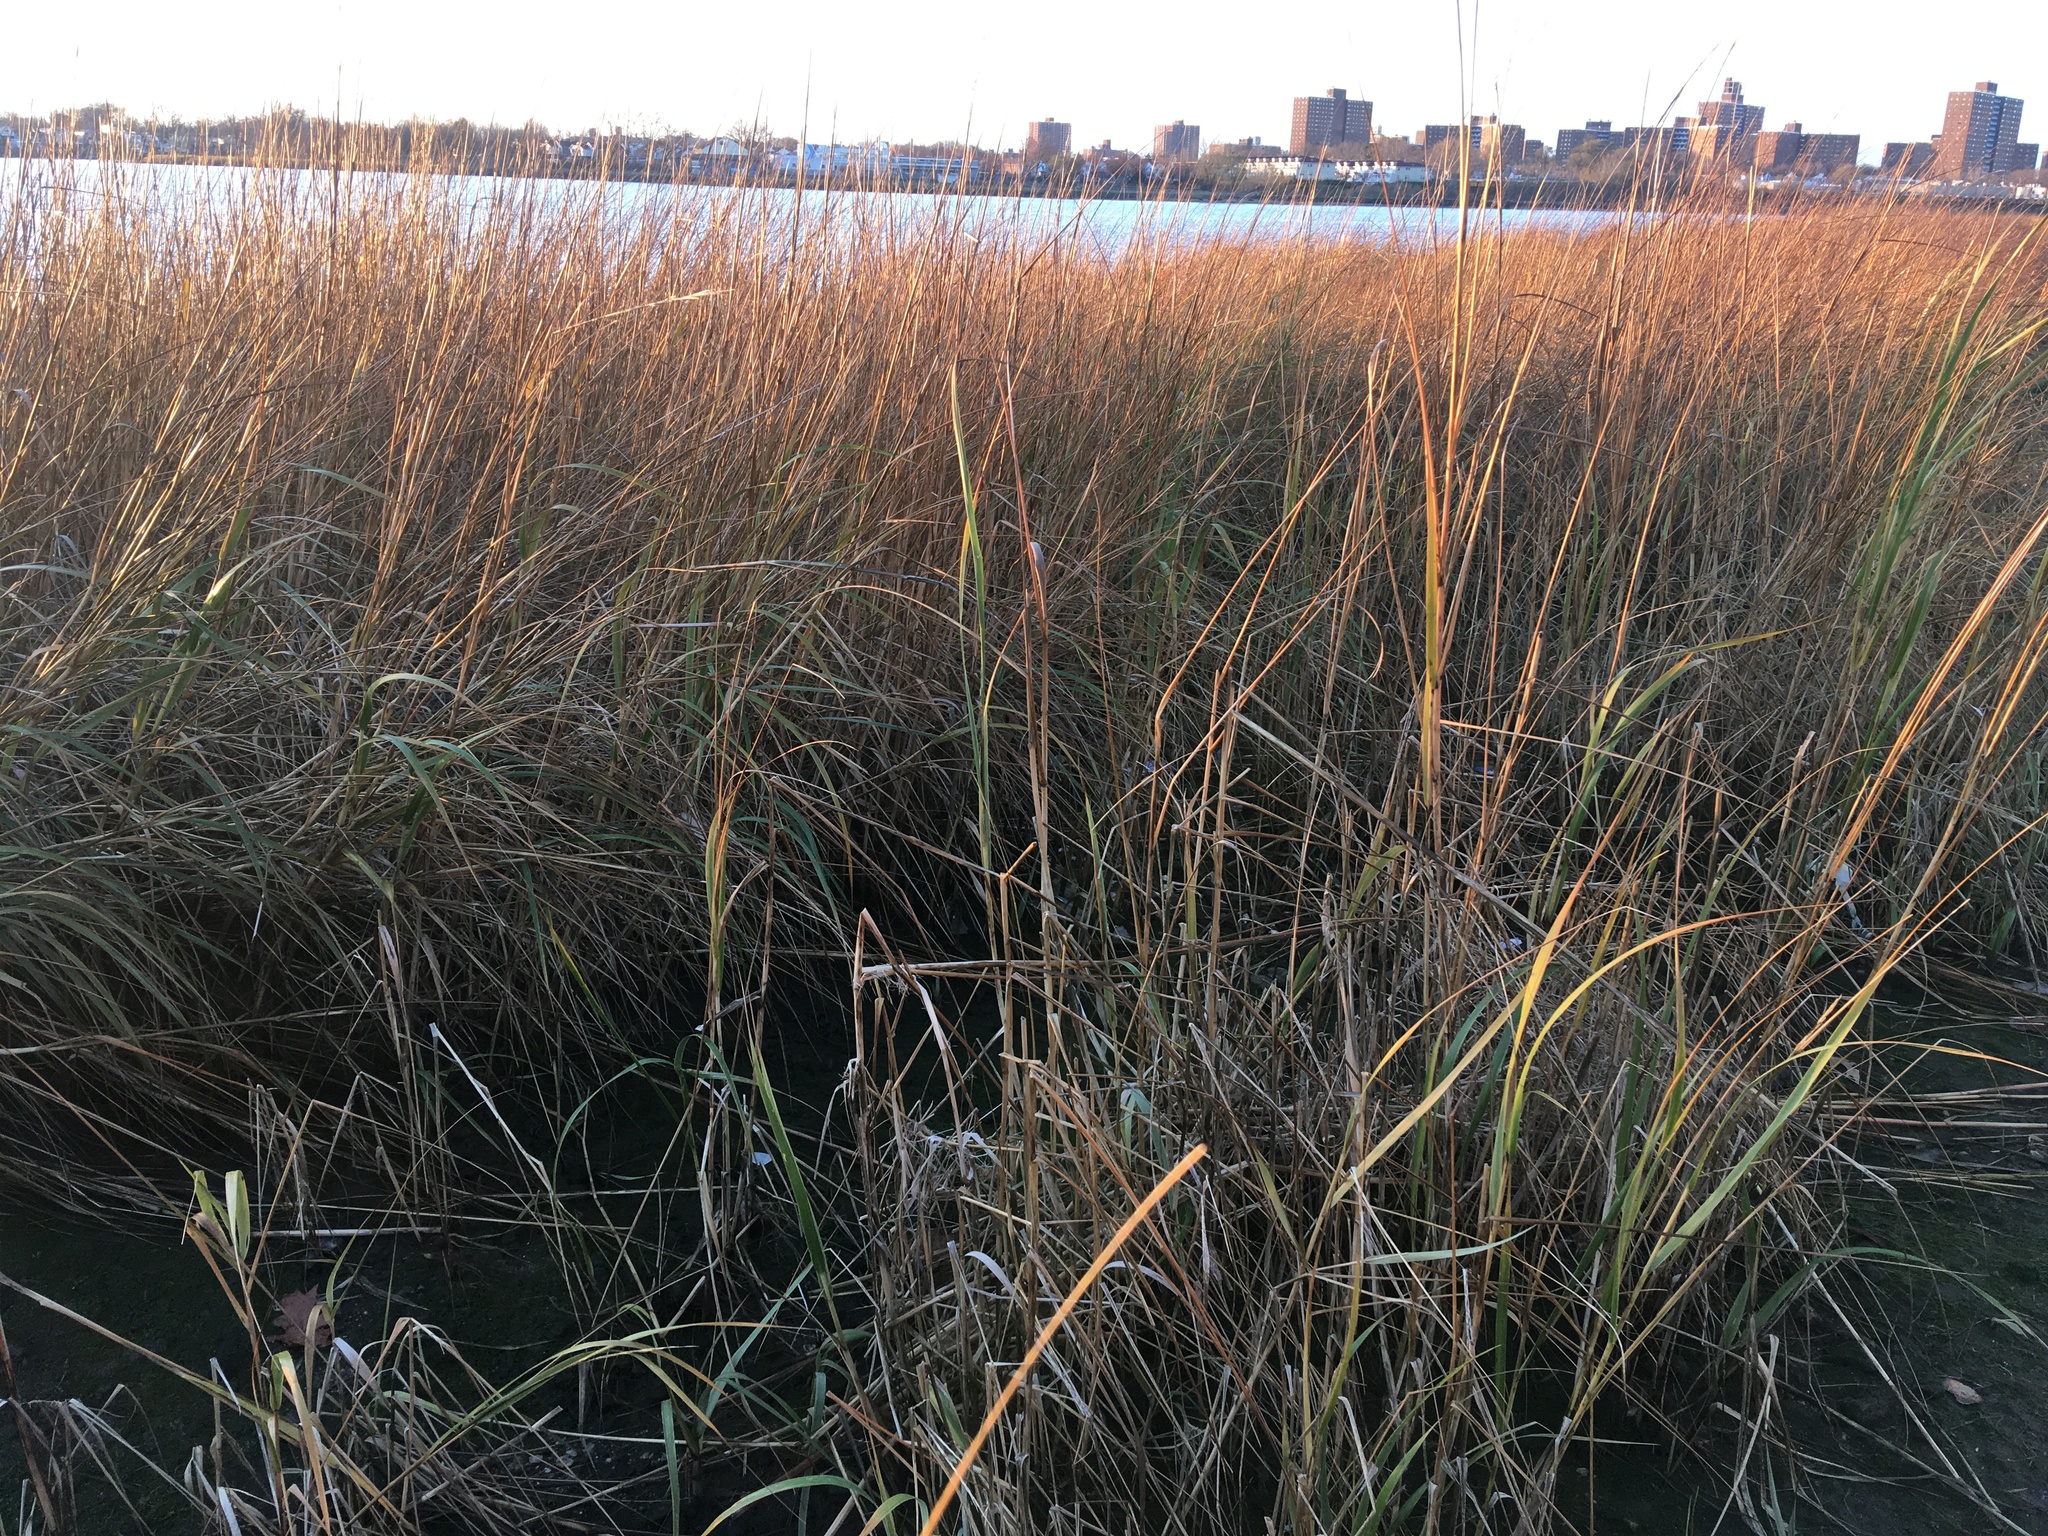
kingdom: Plantae
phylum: Tracheophyta
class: Liliopsida
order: Poales
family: Poaceae
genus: Sporobolus
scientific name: Sporobolus alterniflorus
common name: Atlantic cordgrass
